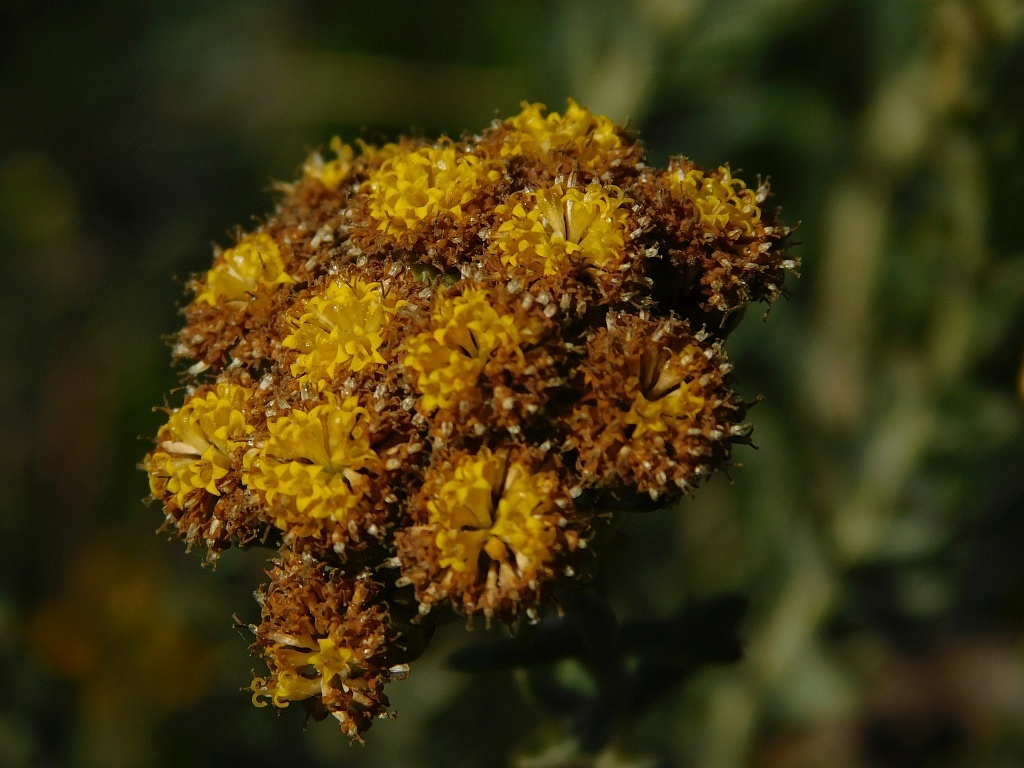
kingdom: Plantae
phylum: Tracheophyta
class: Magnoliopsida
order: Asterales
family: Asteraceae
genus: Athanasia
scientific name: Athanasia trifurcata
